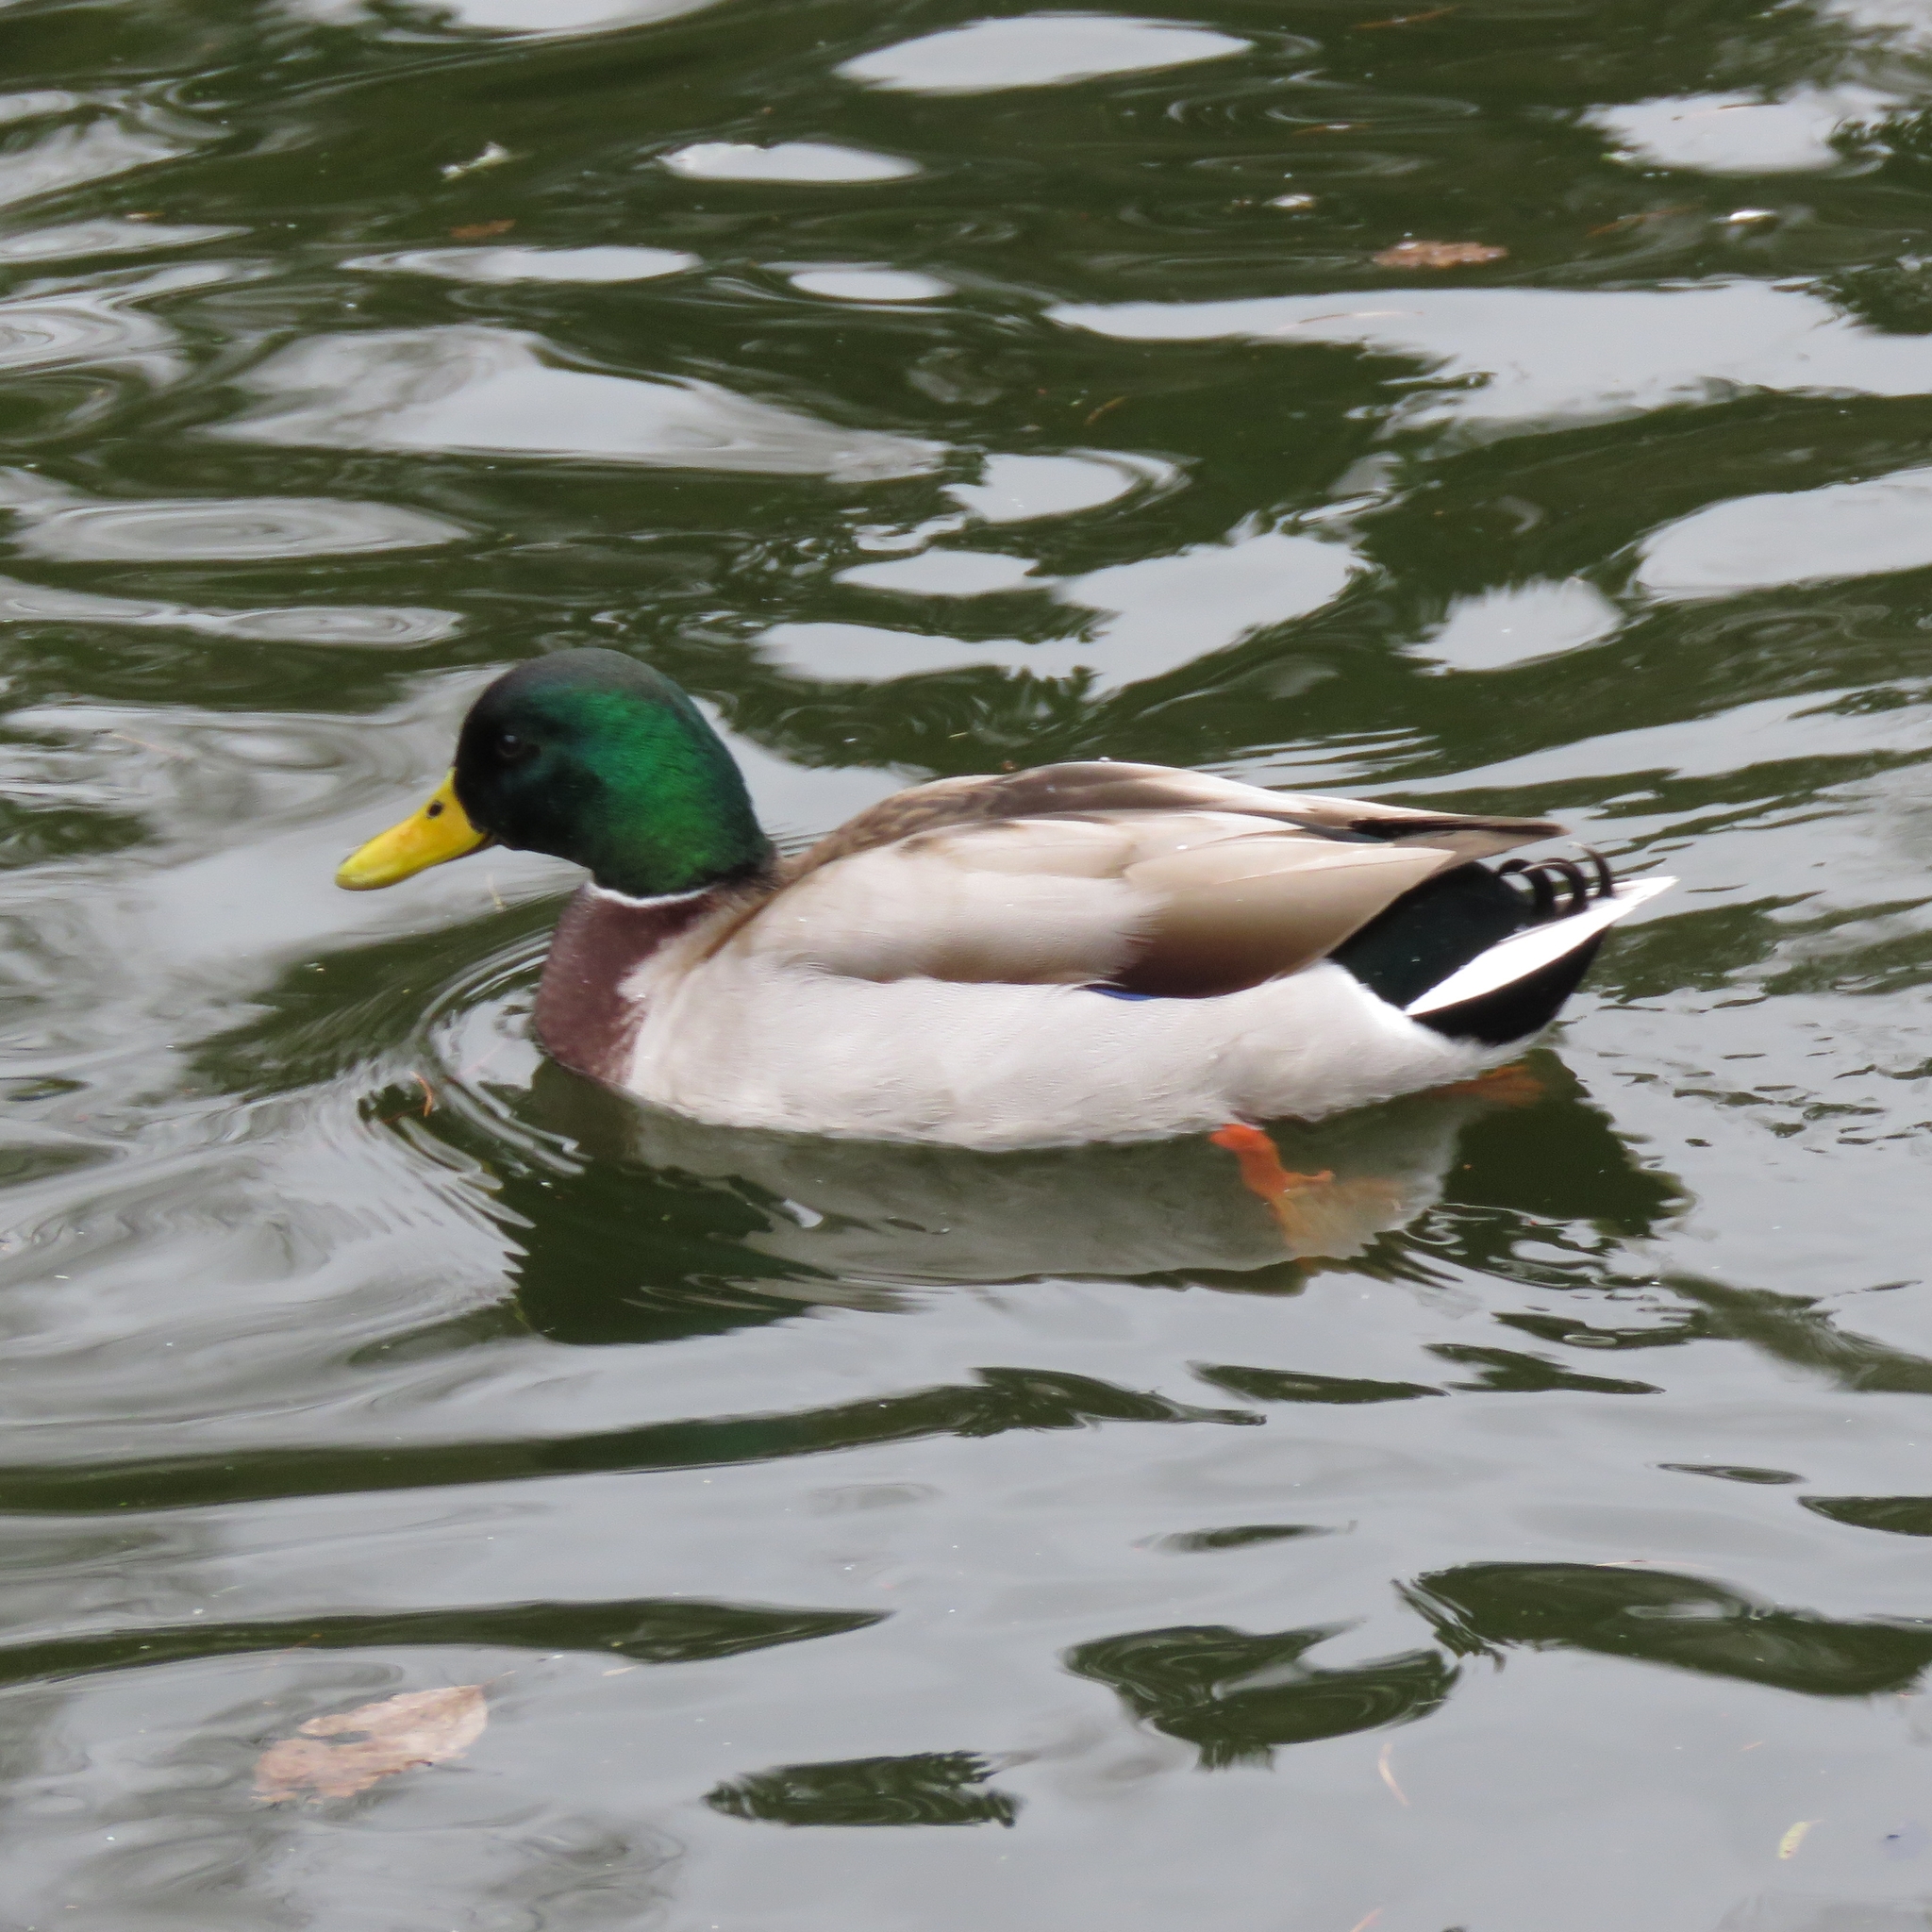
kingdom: Animalia
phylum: Chordata
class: Aves
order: Anseriformes
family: Anatidae
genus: Anas
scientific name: Anas platyrhynchos
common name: Mallard
